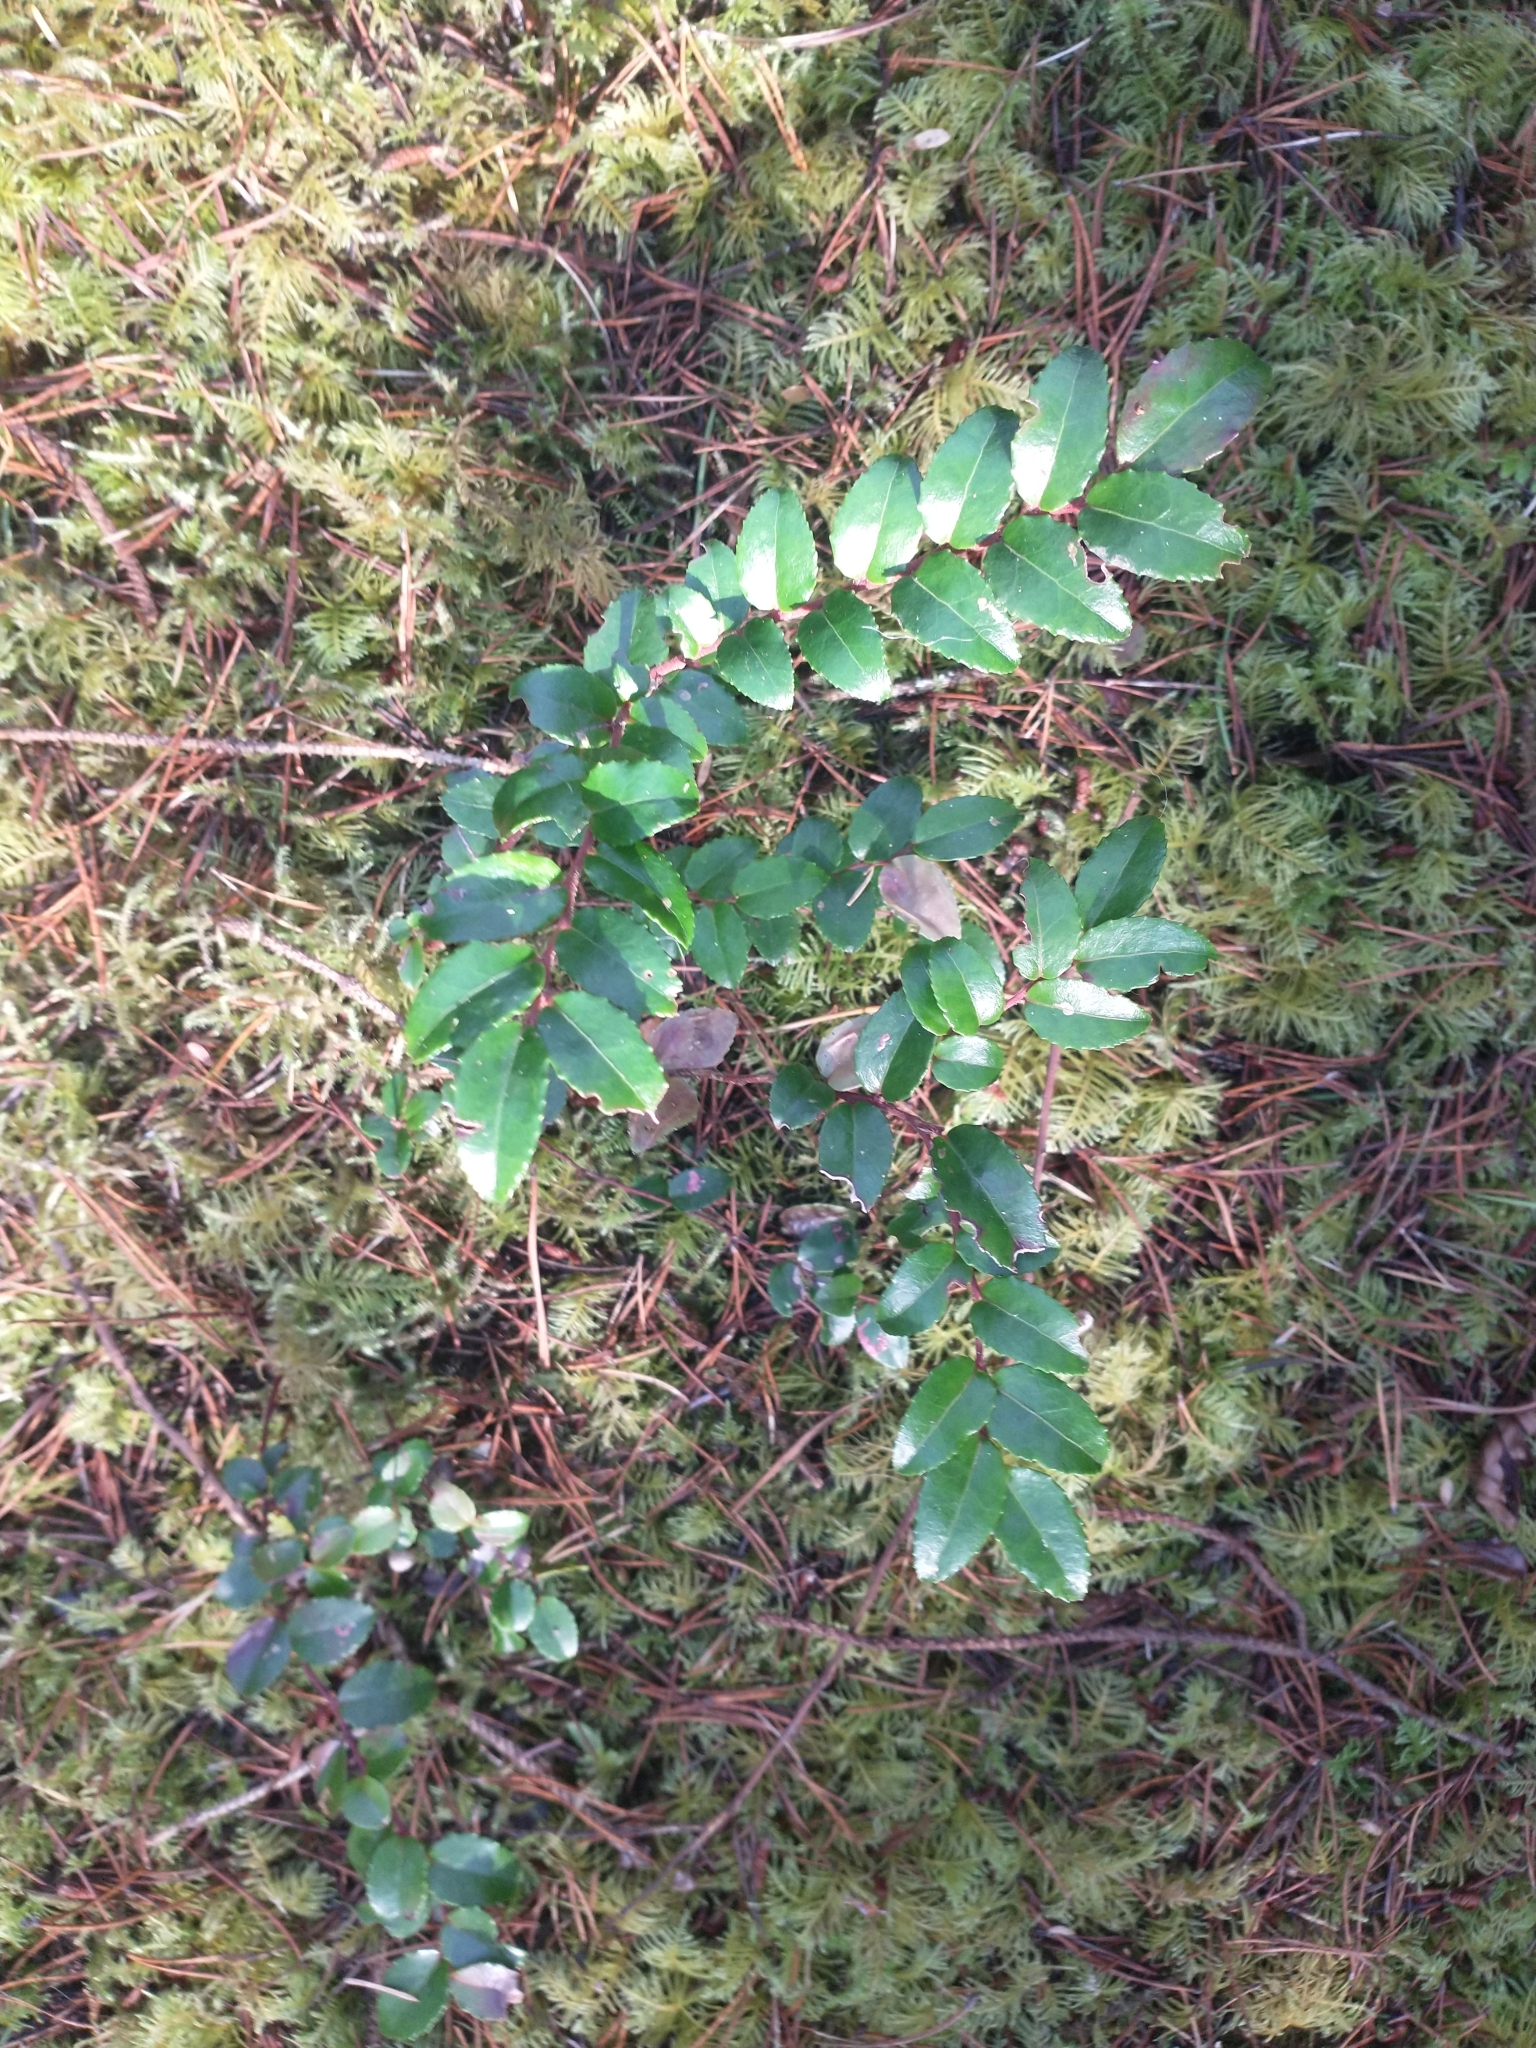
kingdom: Plantae
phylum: Tracheophyta
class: Magnoliopsida
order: Ericales
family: Ericaceae
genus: Vaccinium
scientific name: Vaccinium ovatum
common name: California-huckleberry
